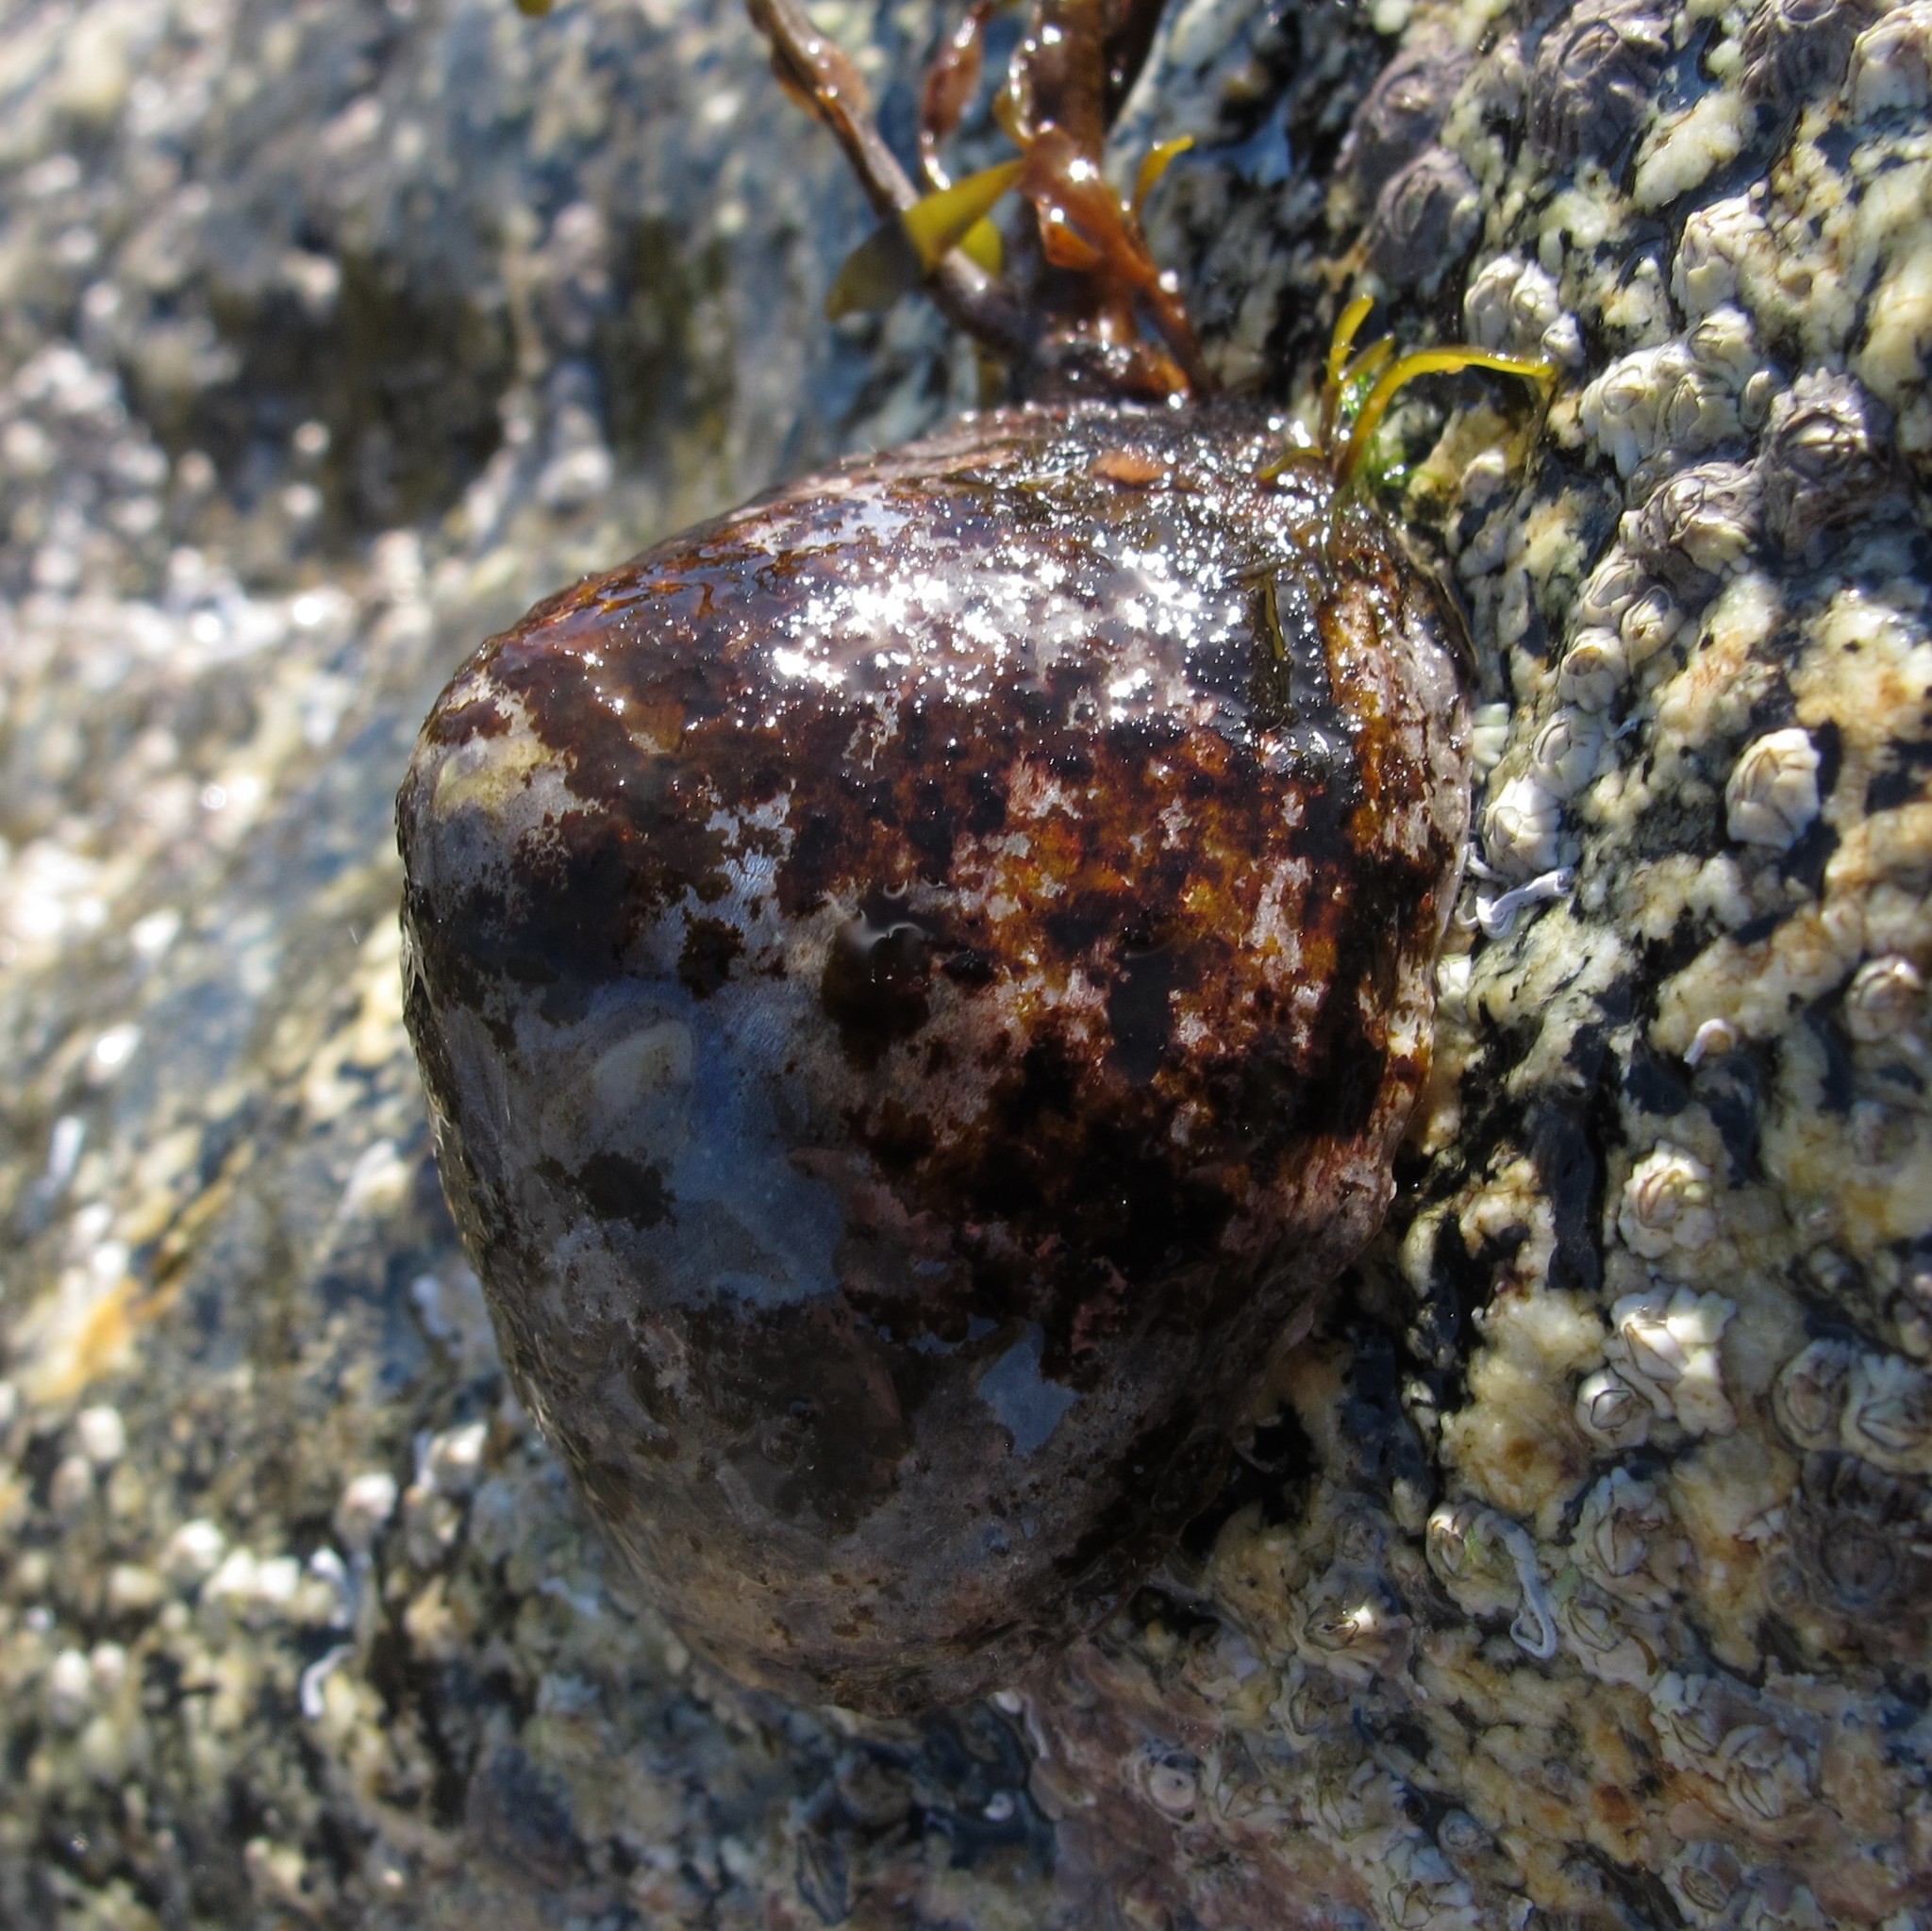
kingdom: Animalia
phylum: Mollusca
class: Gastropoda
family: Patellidae
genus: Patella
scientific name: Patella vulgata
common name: Common limpet
